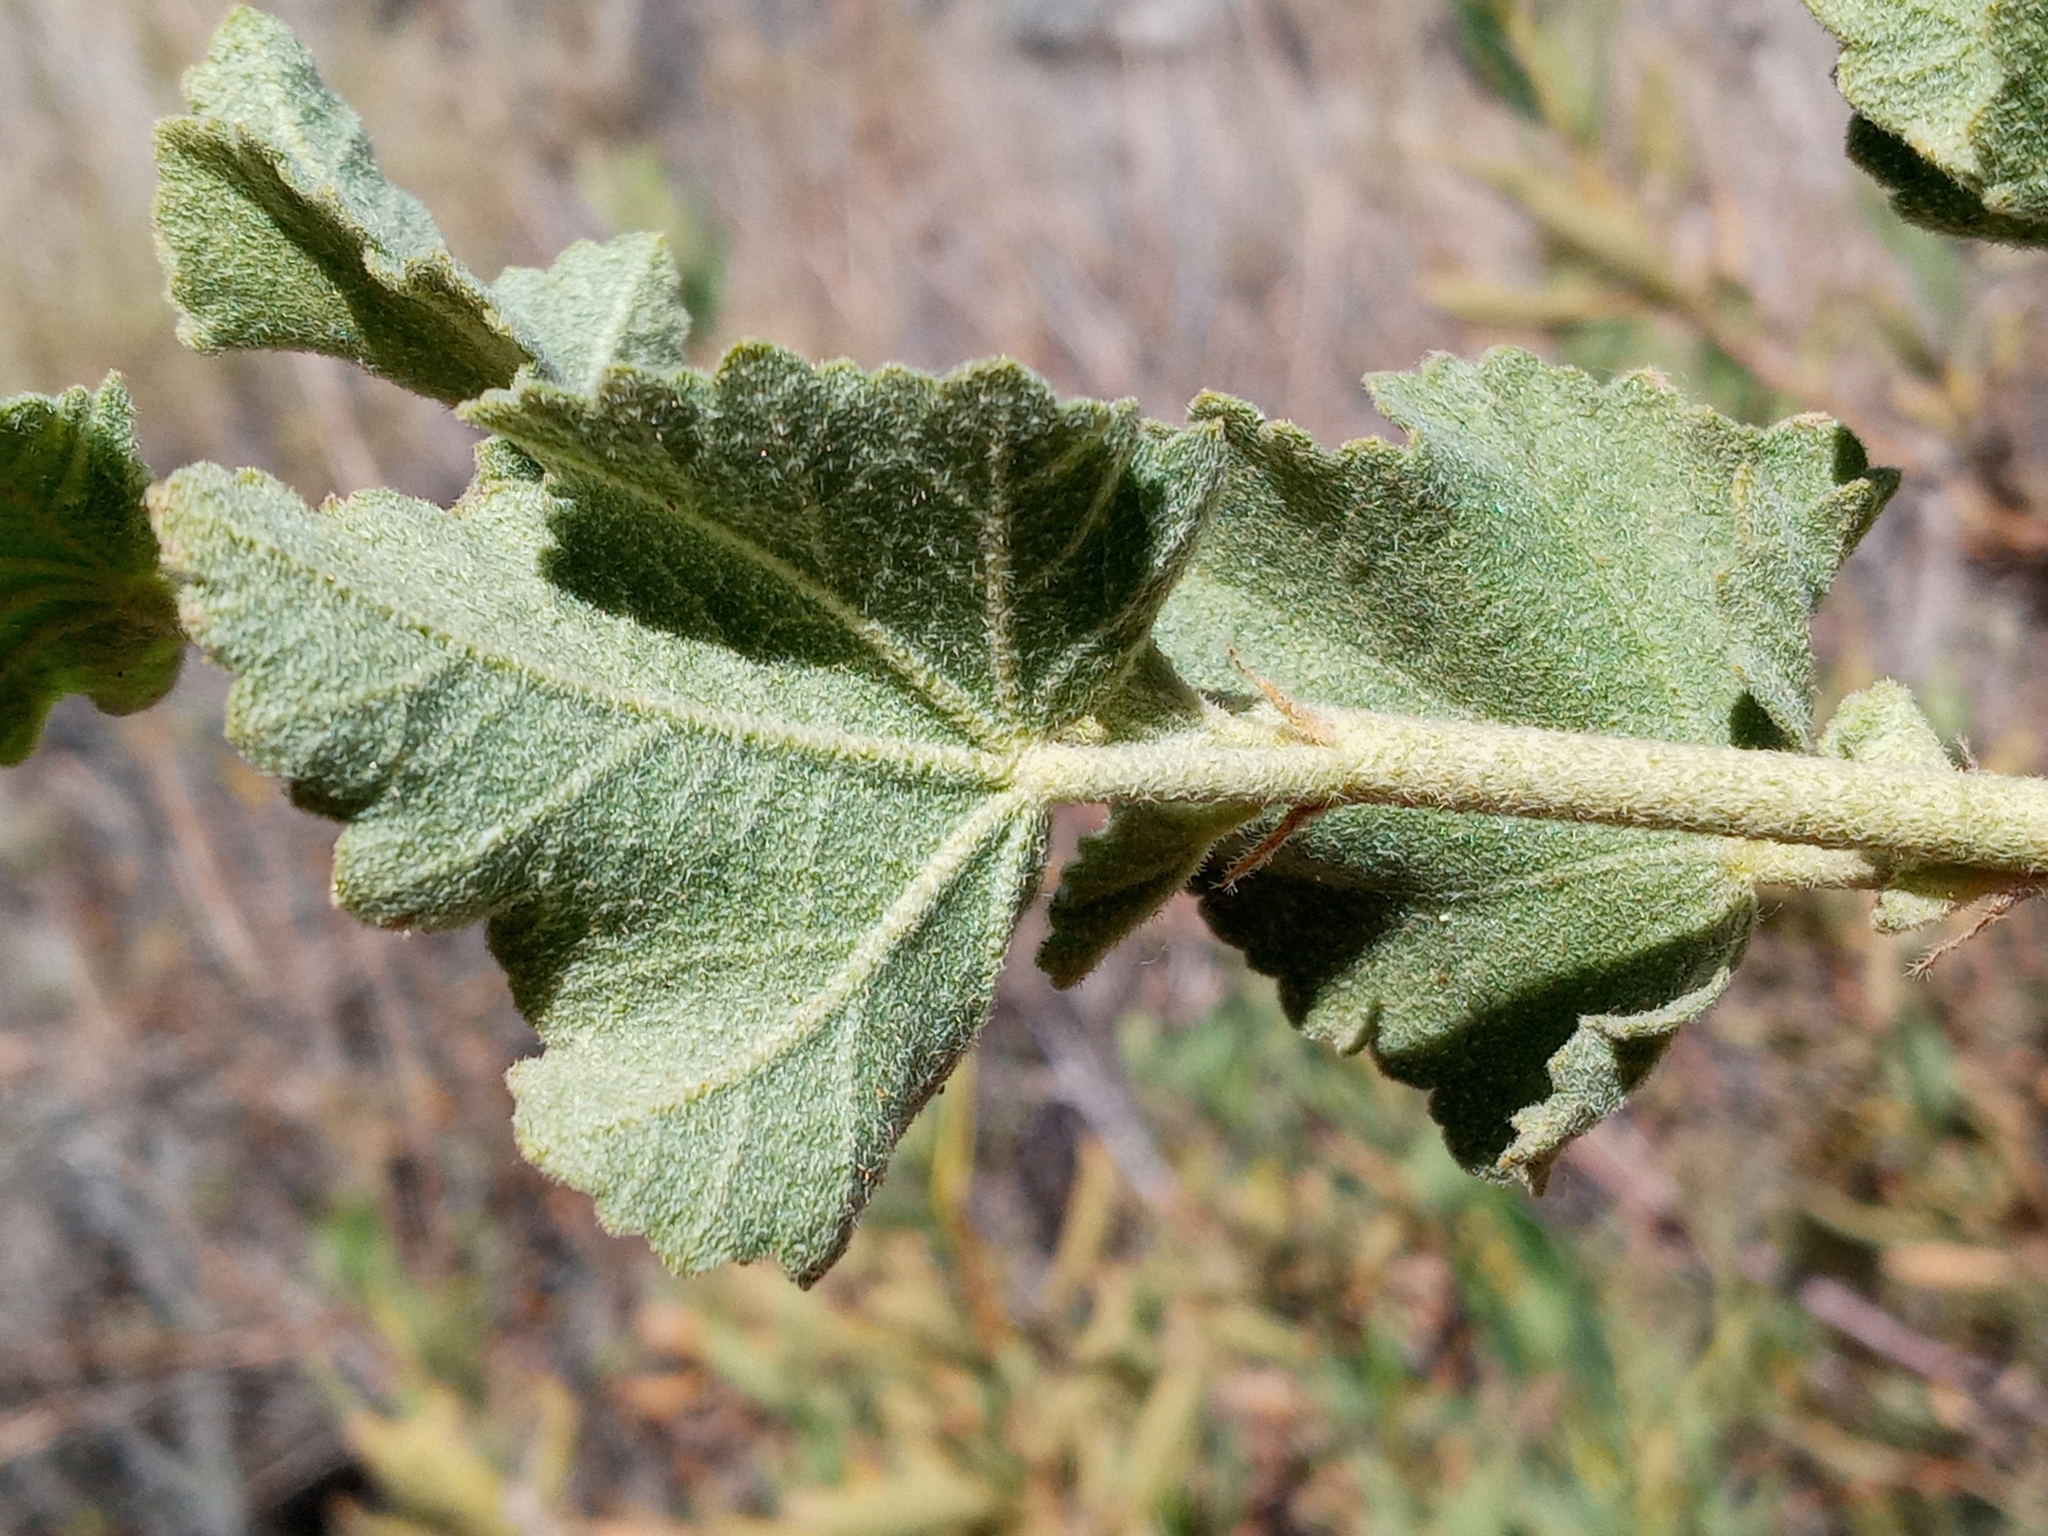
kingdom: Plantae
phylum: Tracheophyta
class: Magnoliopsida
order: Malvales
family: Malvaceae
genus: Malacothamnus
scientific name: Malacothamnus fremontii
